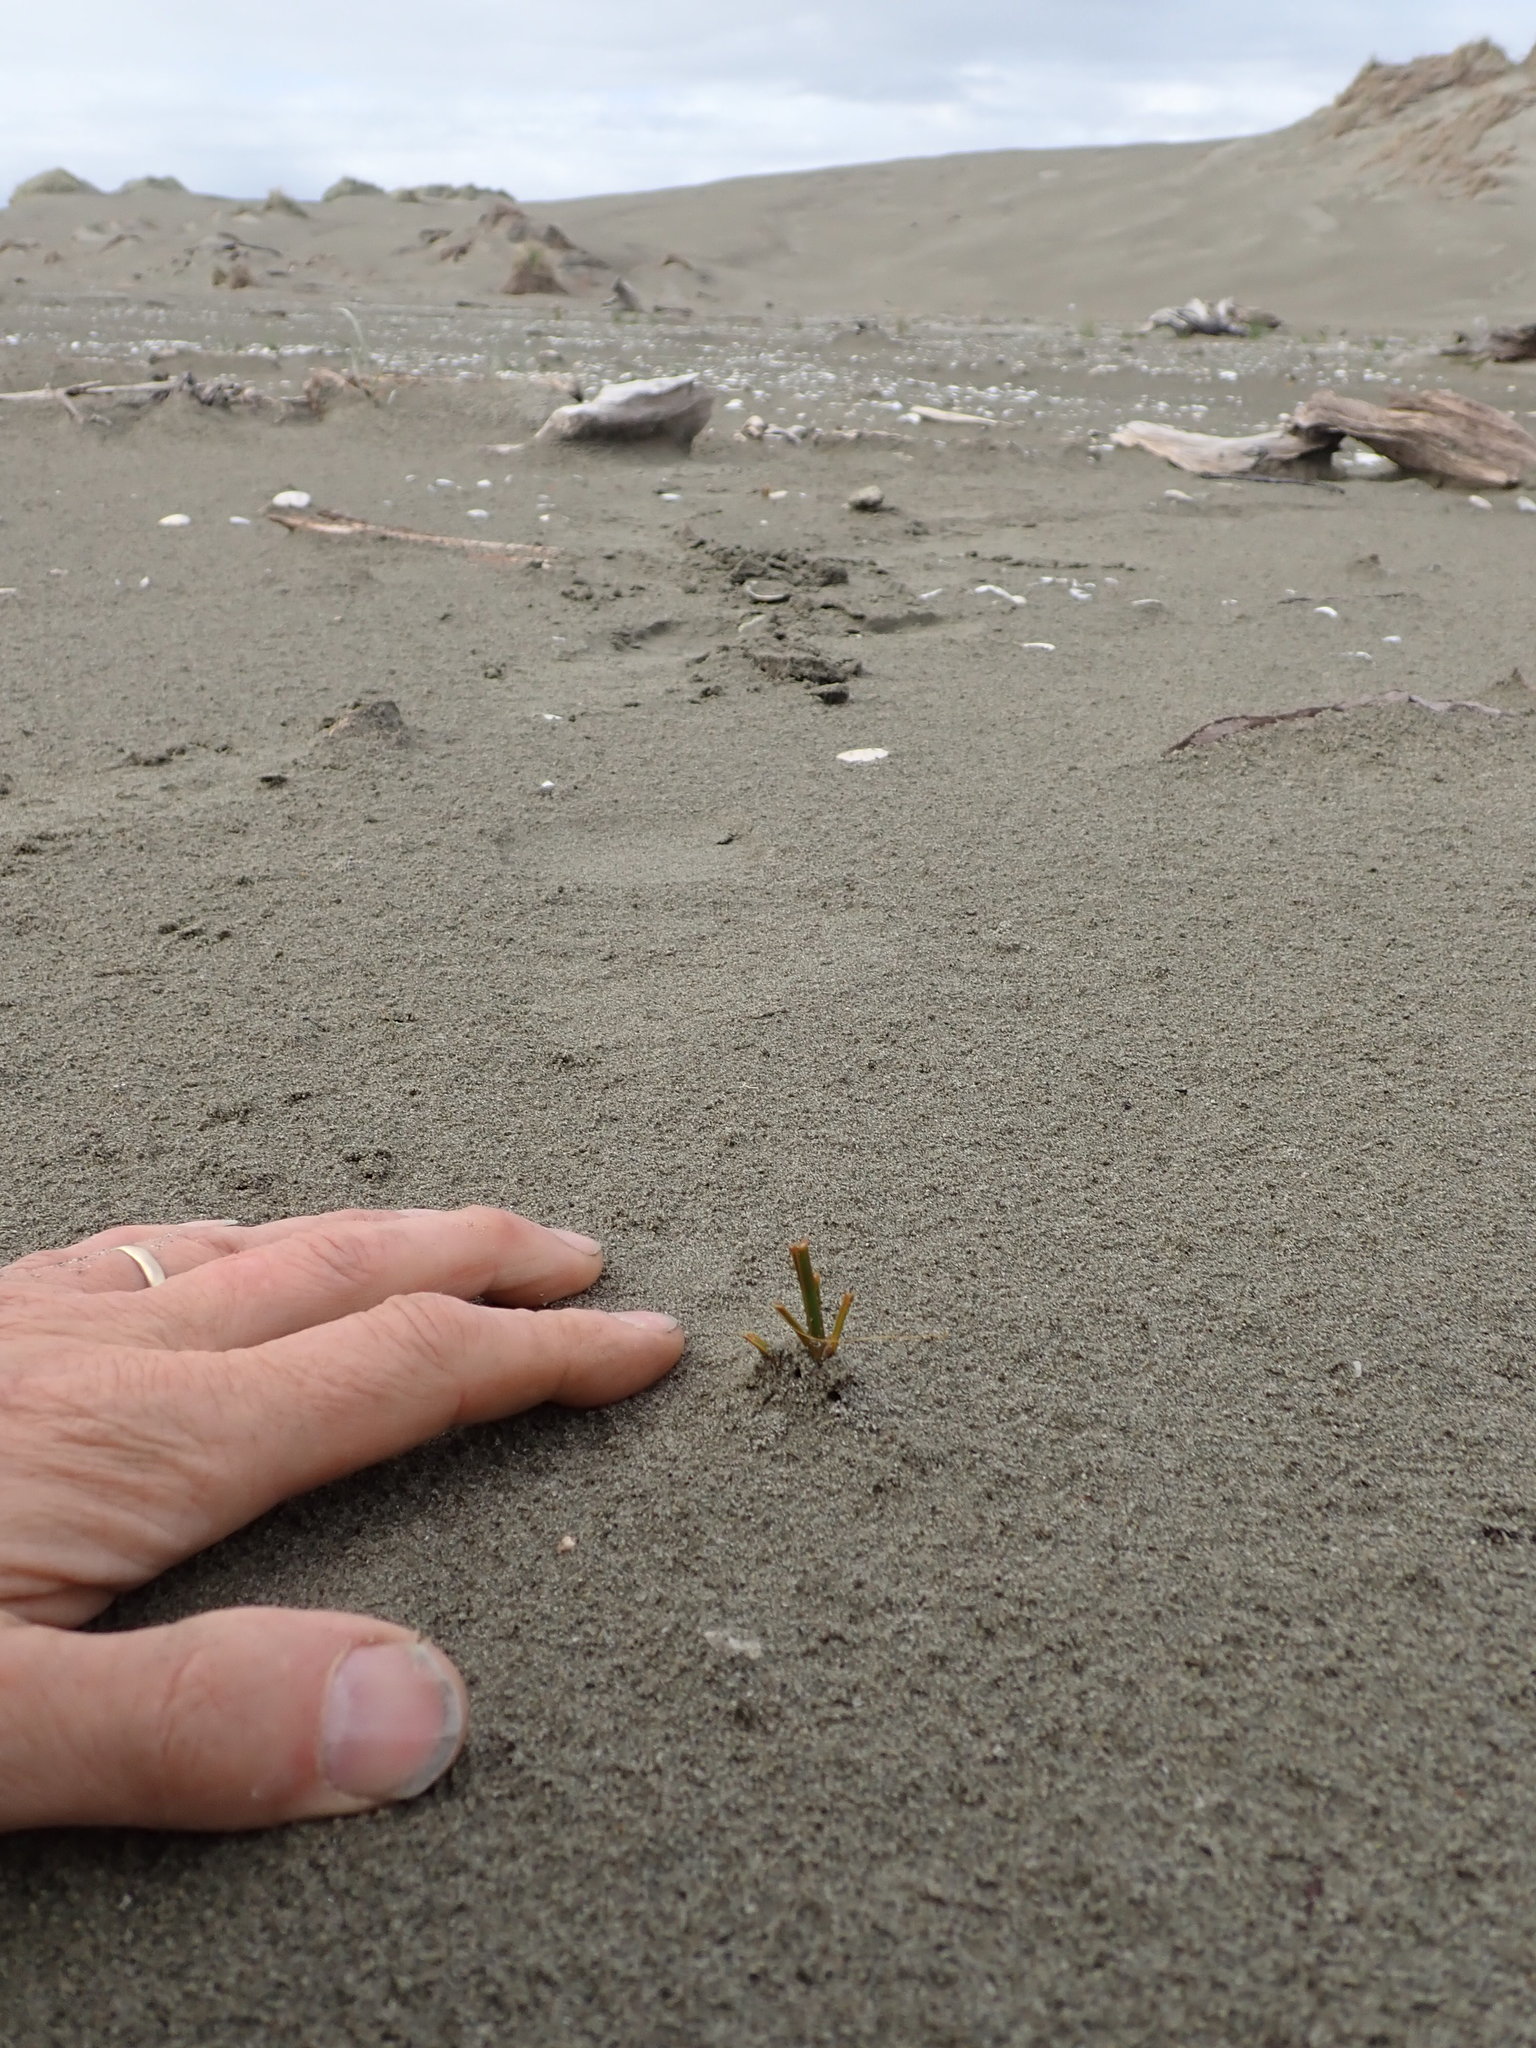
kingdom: Plantae
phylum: Tracheophyta
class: Liliopsida
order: Poales
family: Cyperaceae
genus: Ficinia
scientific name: Ficinia spiralis
